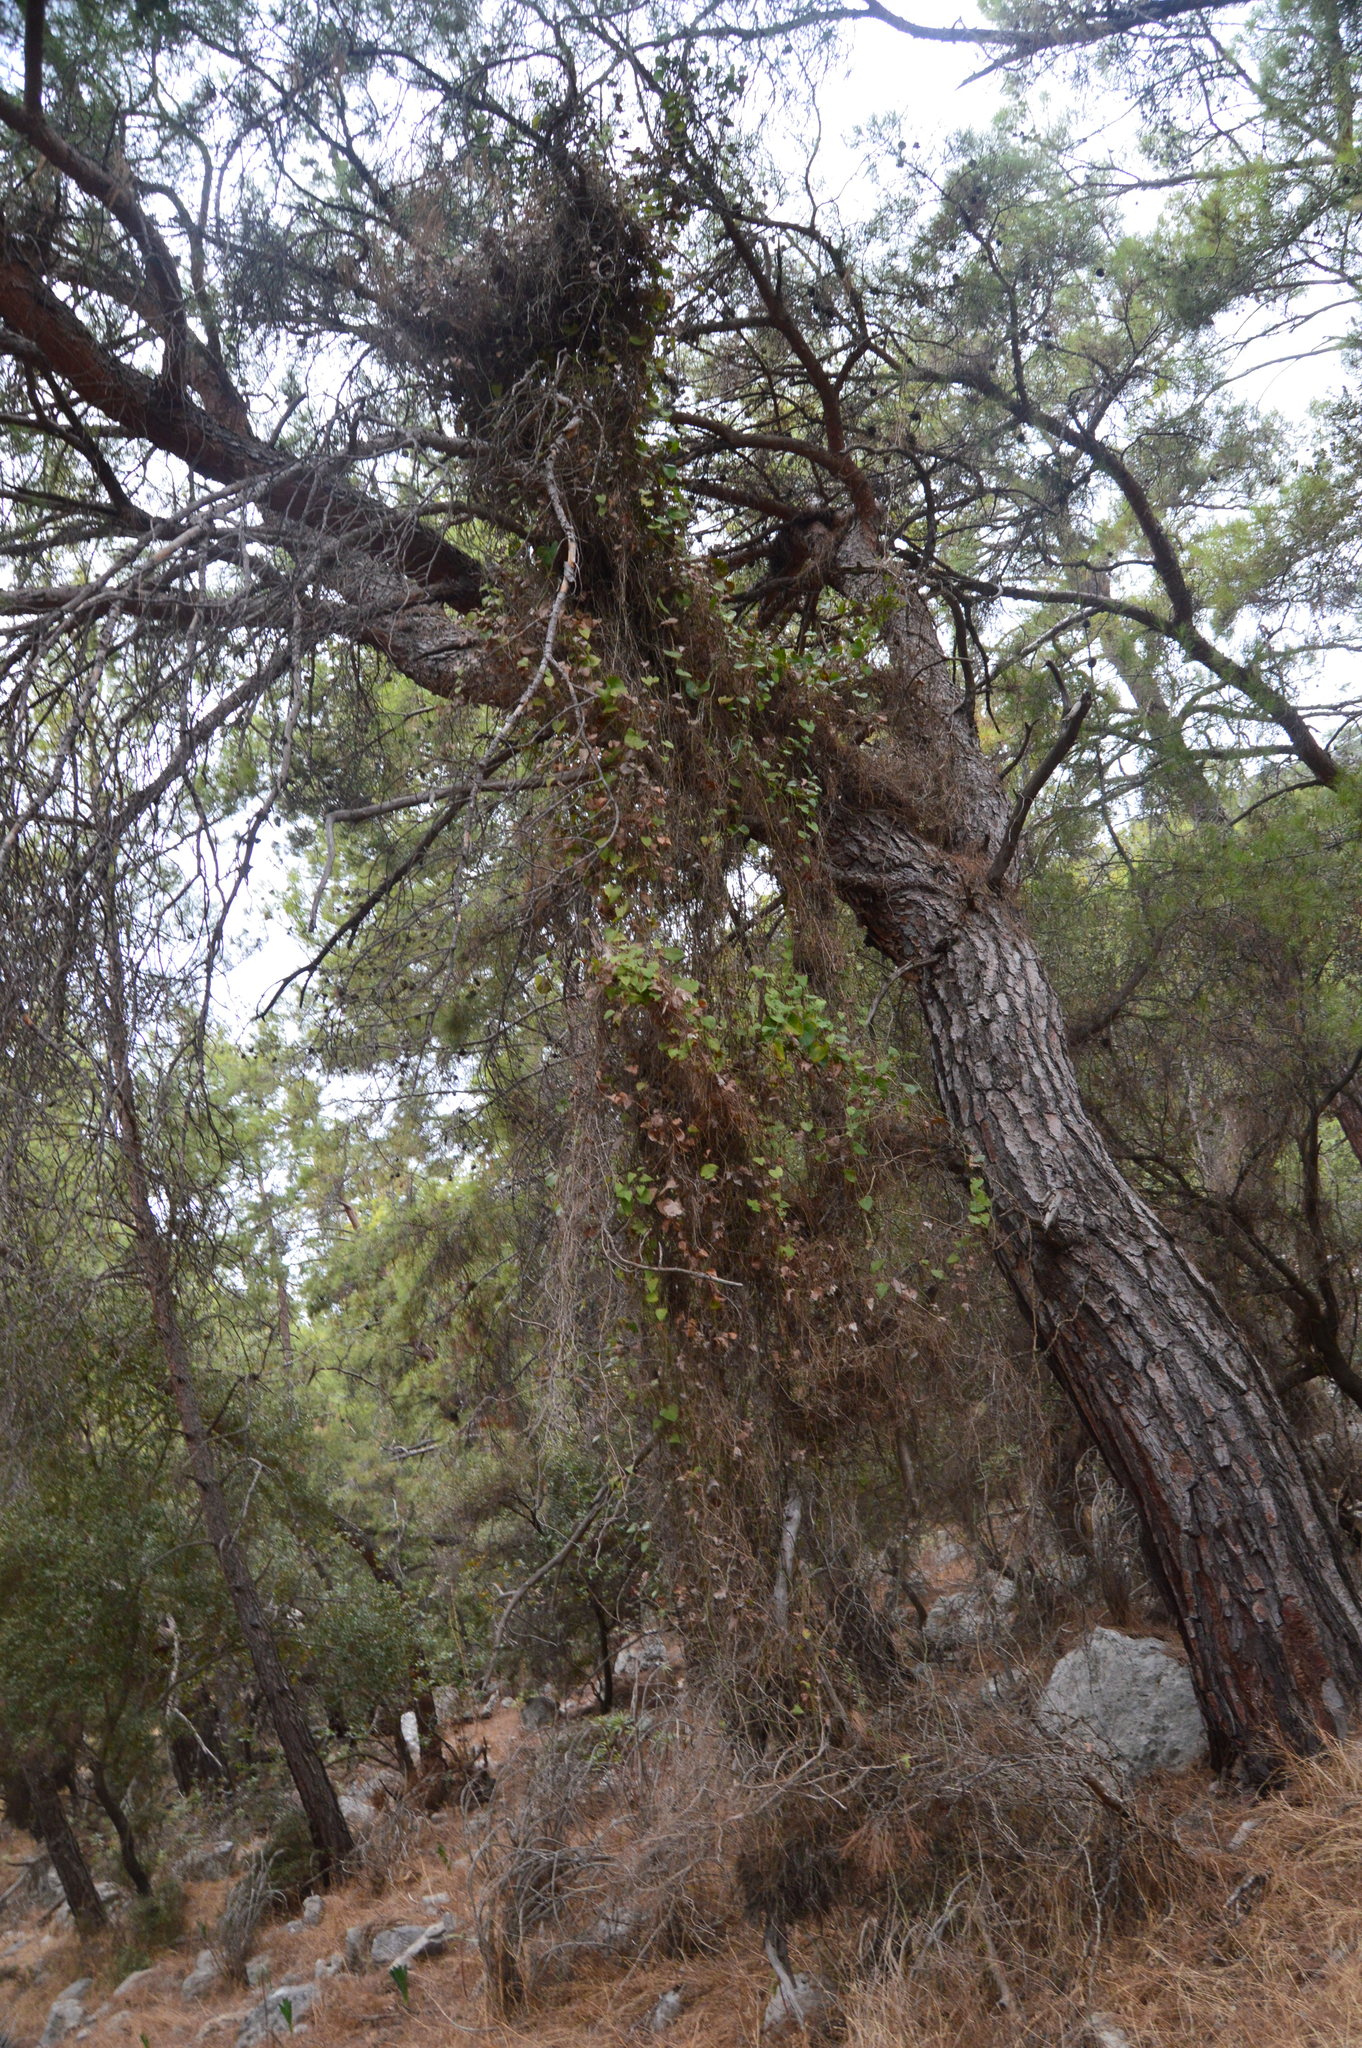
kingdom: Plantae
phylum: Tracheophyta
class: Liliopsida
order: Liliales
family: Smilacaceae
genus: Smilax
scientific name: Smilax aspera
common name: Common smilax
